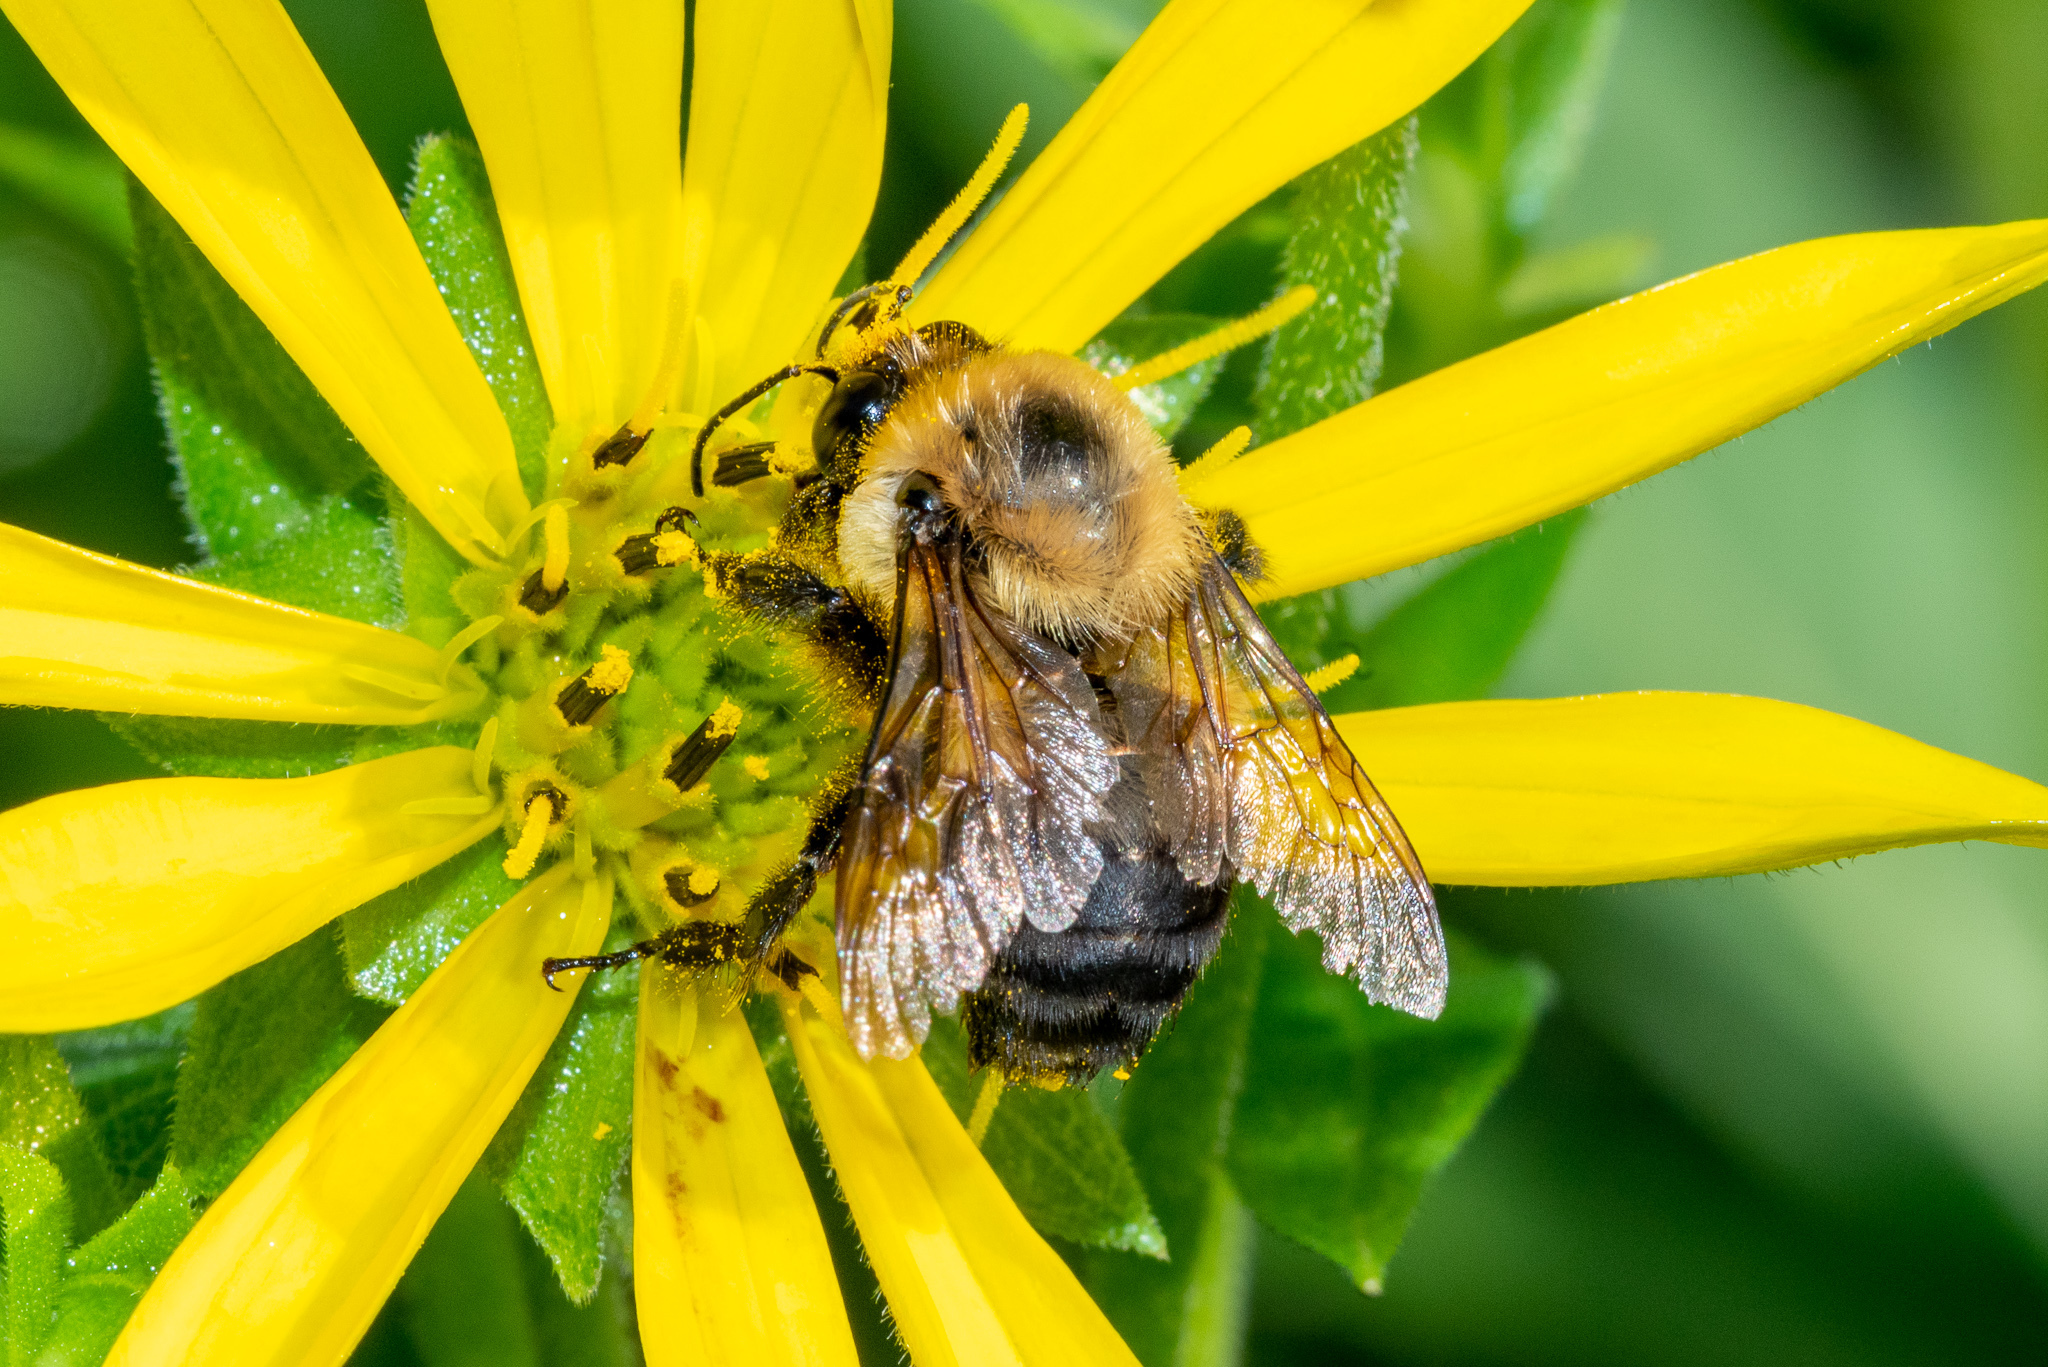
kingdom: Animalia
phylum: Arthropoda
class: Insecta
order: Hymenoptera
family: Apidae
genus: Bombus
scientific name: Bombus griseocollis
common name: Brown-belted bumble bee
